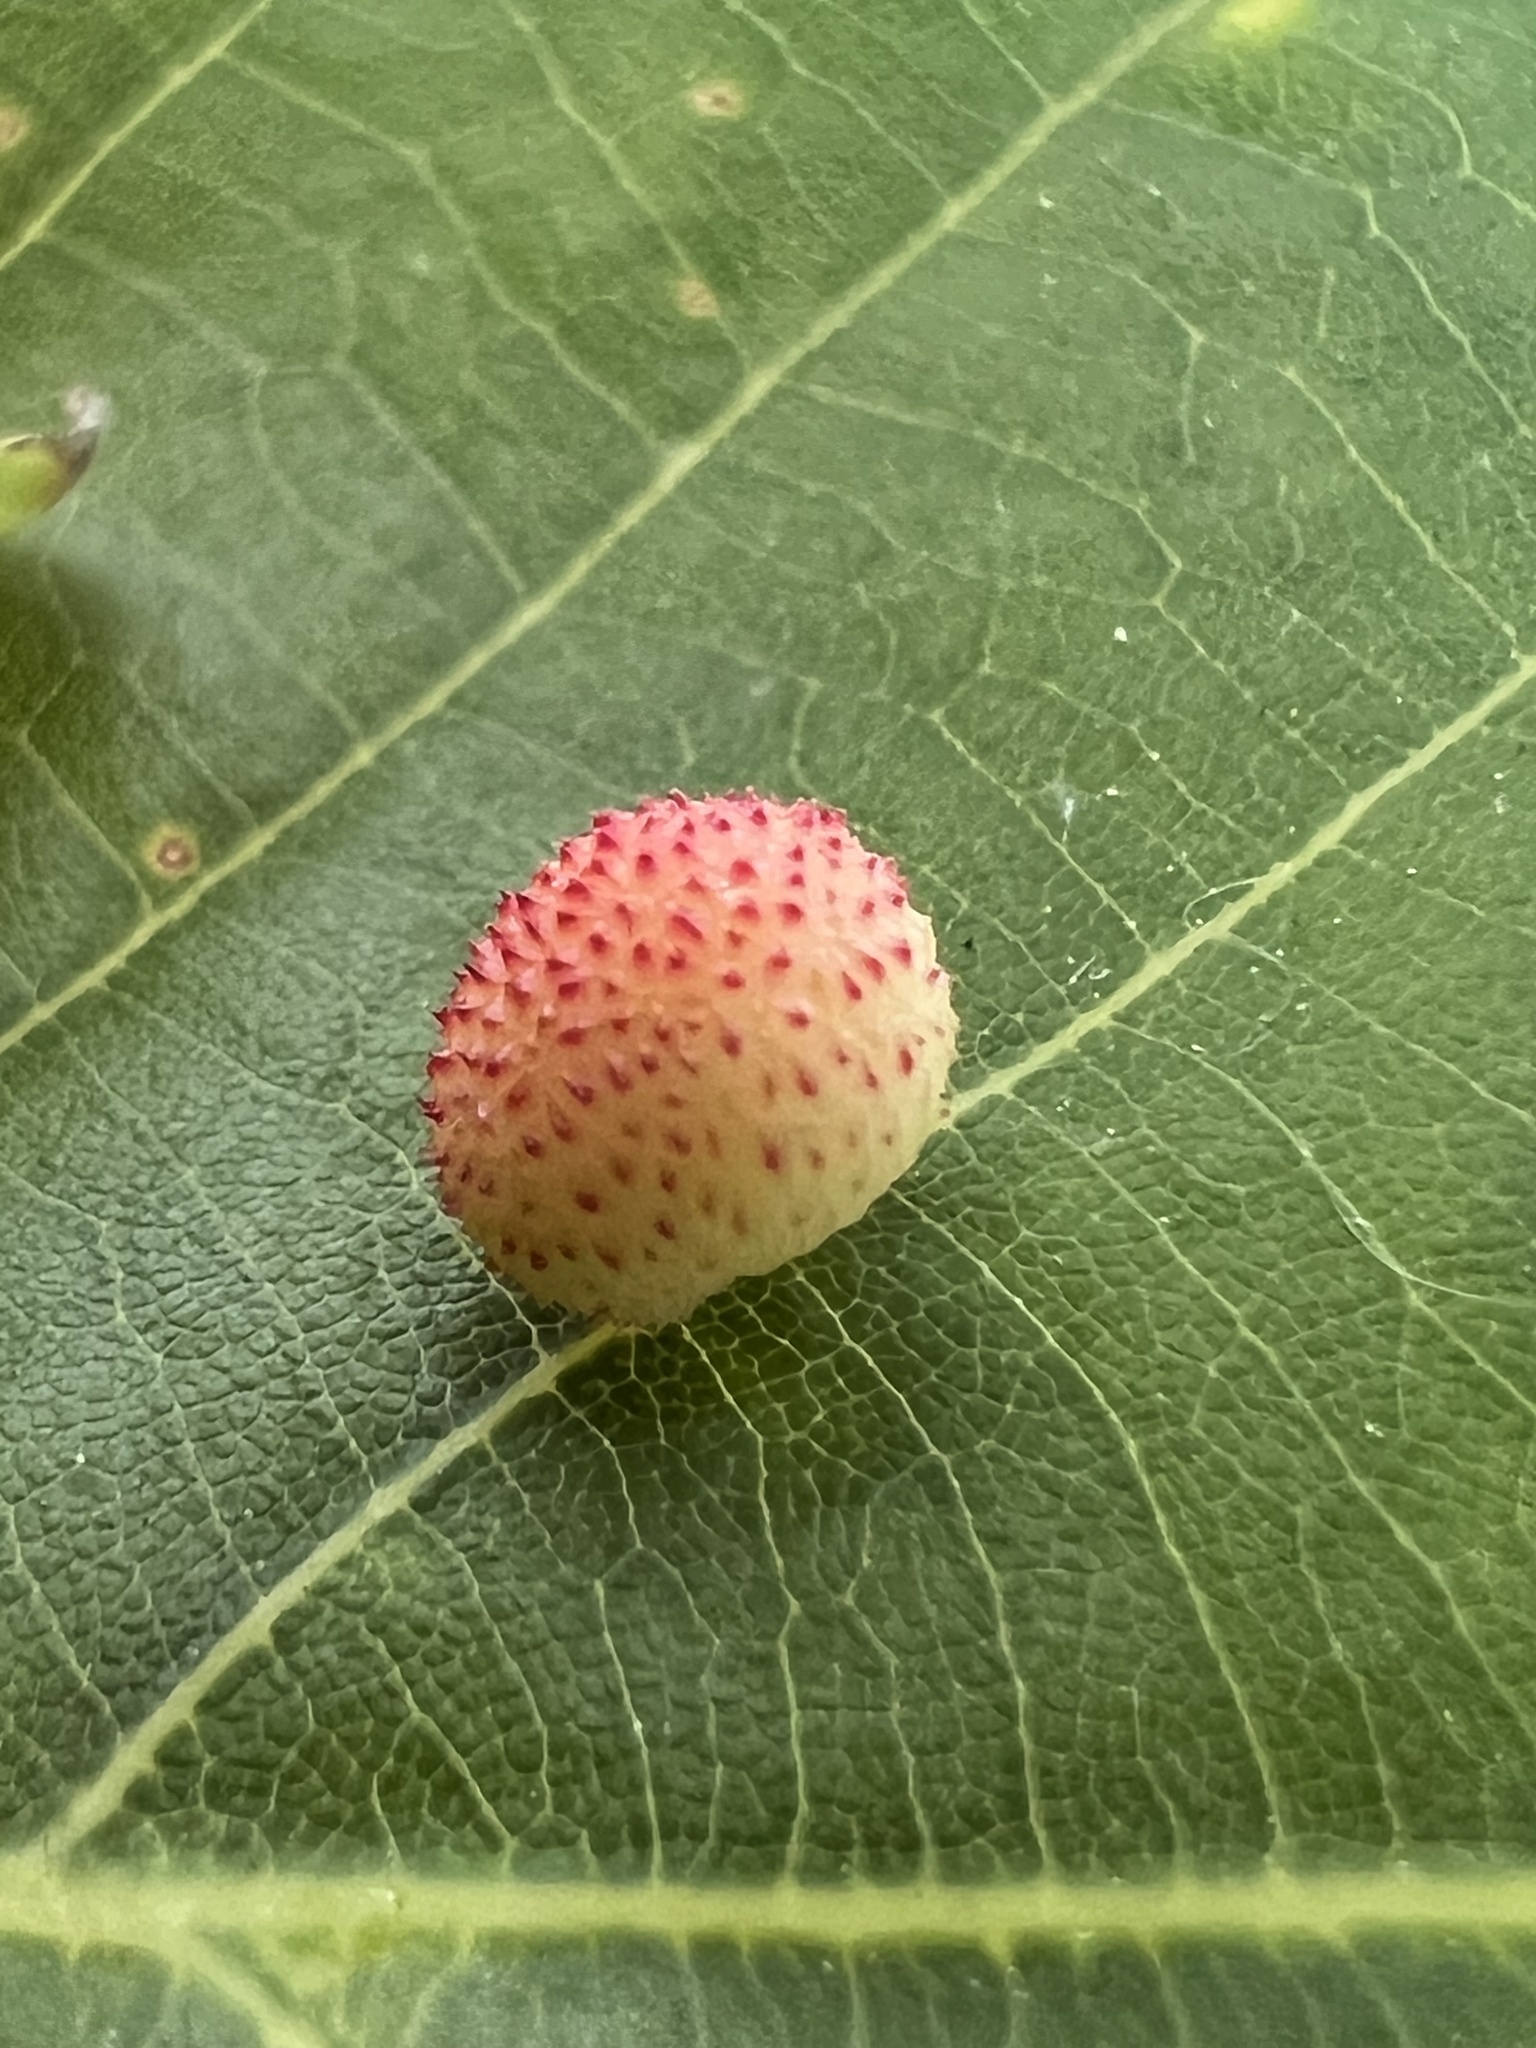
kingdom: Animalia
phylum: Arthropoda
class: Insecta
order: Hymenoptera
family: Cynipidae
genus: Acraspis
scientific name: Acraspis quercushirta
